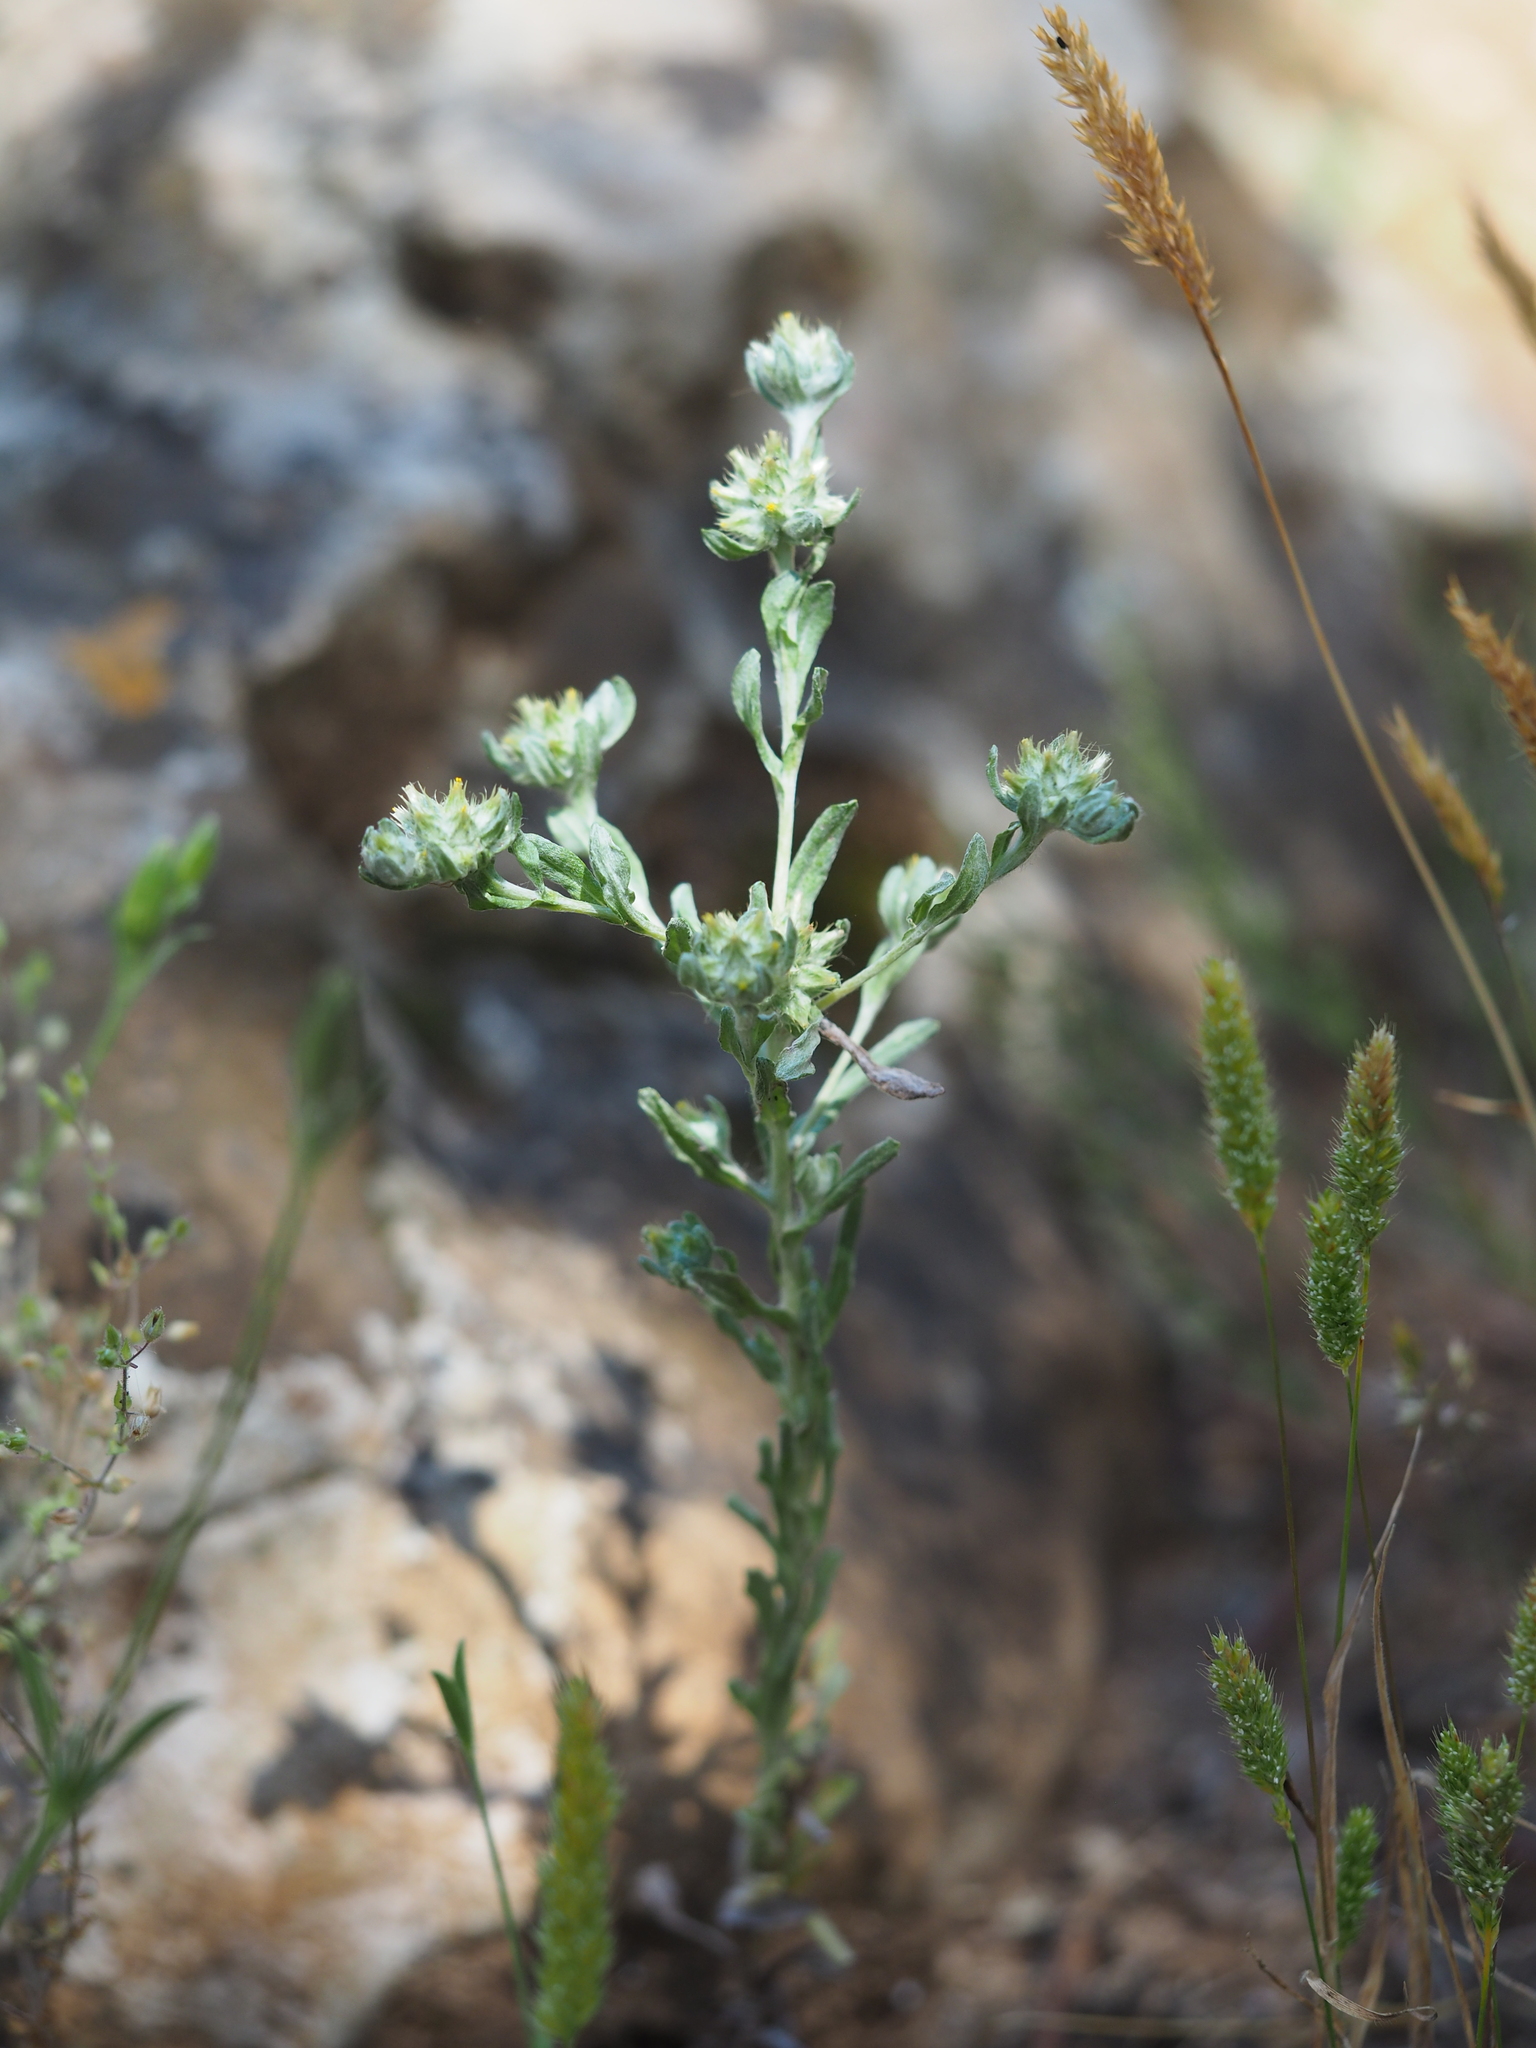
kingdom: Plantae
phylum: Tracheophyta
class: Magnoliopsida
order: Asterales
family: Asteraceae
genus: Filago
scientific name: Filago pyramidata
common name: Broad-leaved cudweed
